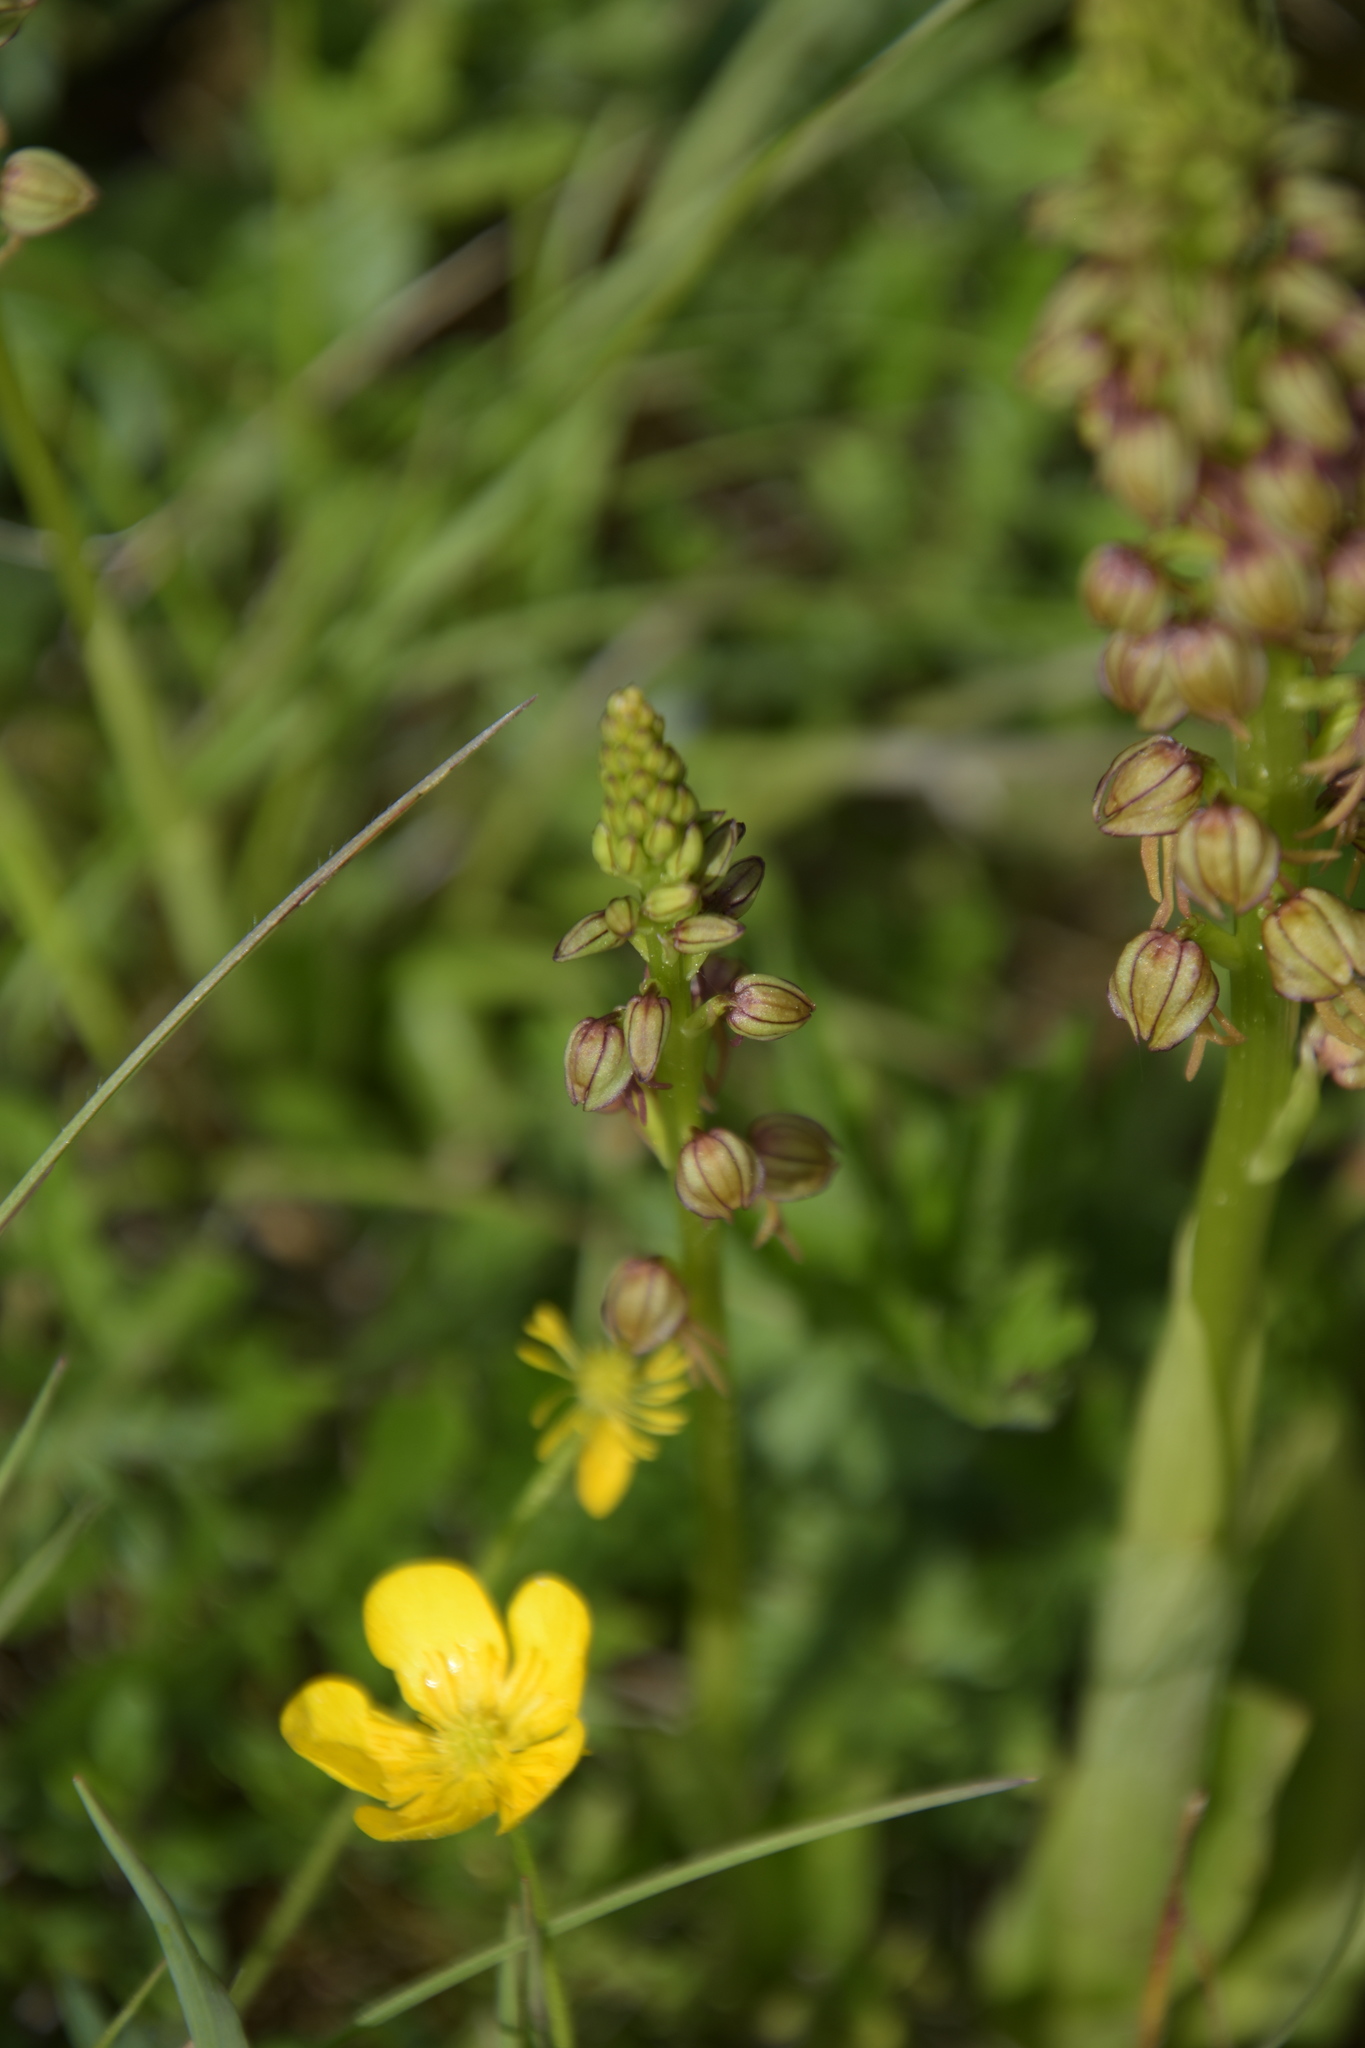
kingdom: Plantae
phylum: Tracheophyta
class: Liliopsida
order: Asparagales
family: Orchidaceae
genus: Orchis
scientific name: Orchis anthropophora
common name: Man orchid
